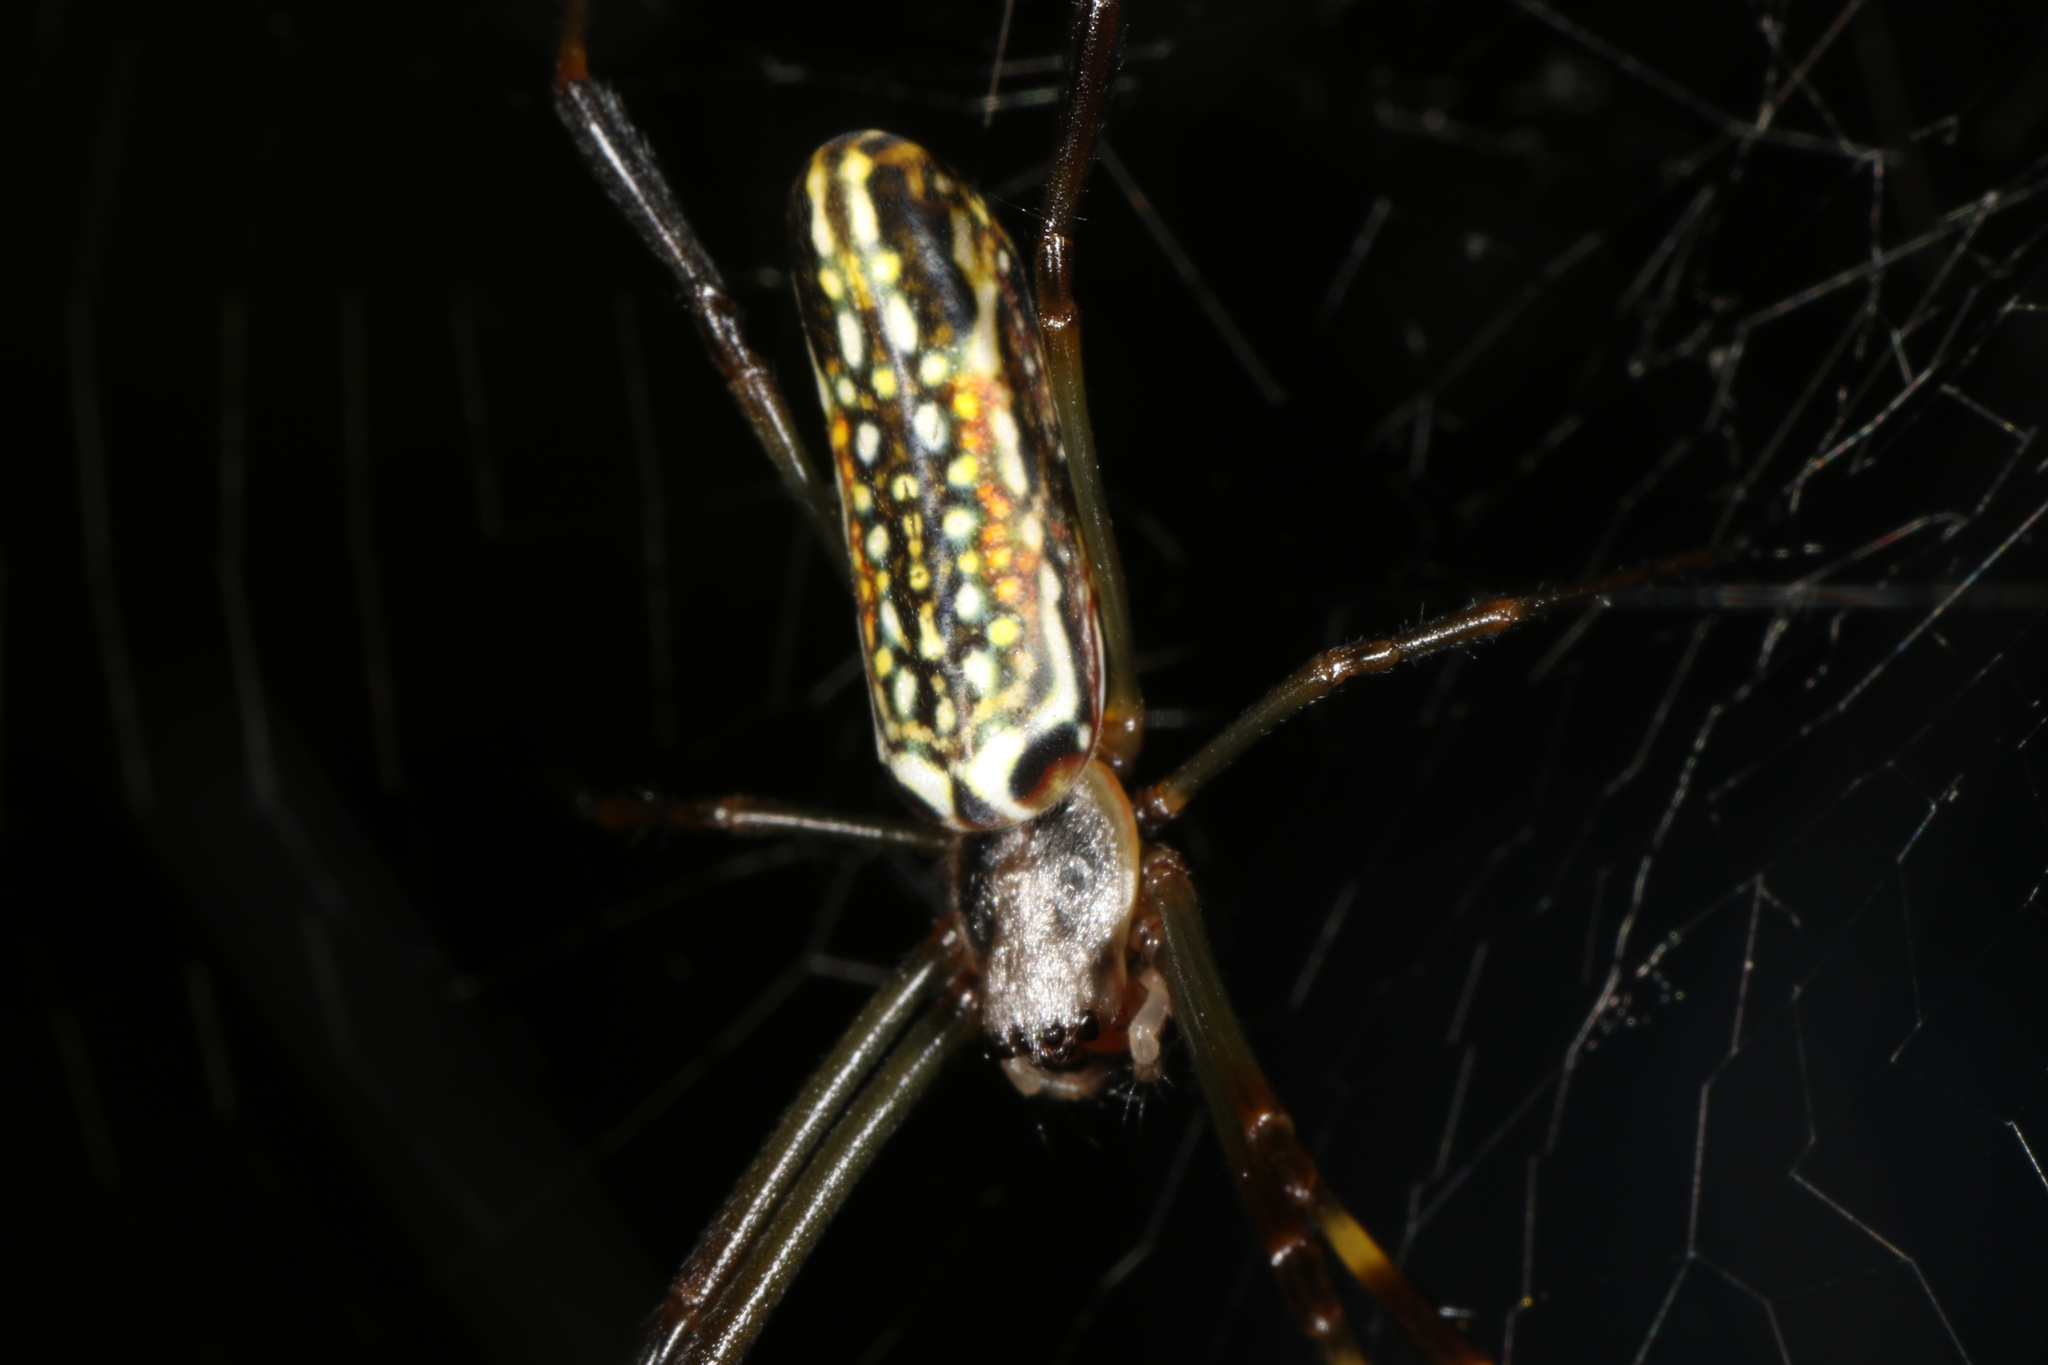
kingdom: Animalia
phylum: Arthropoda
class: Arachnida
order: Araneae
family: Araneidae
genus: Trichonephila
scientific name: Trichonephila clavipes
